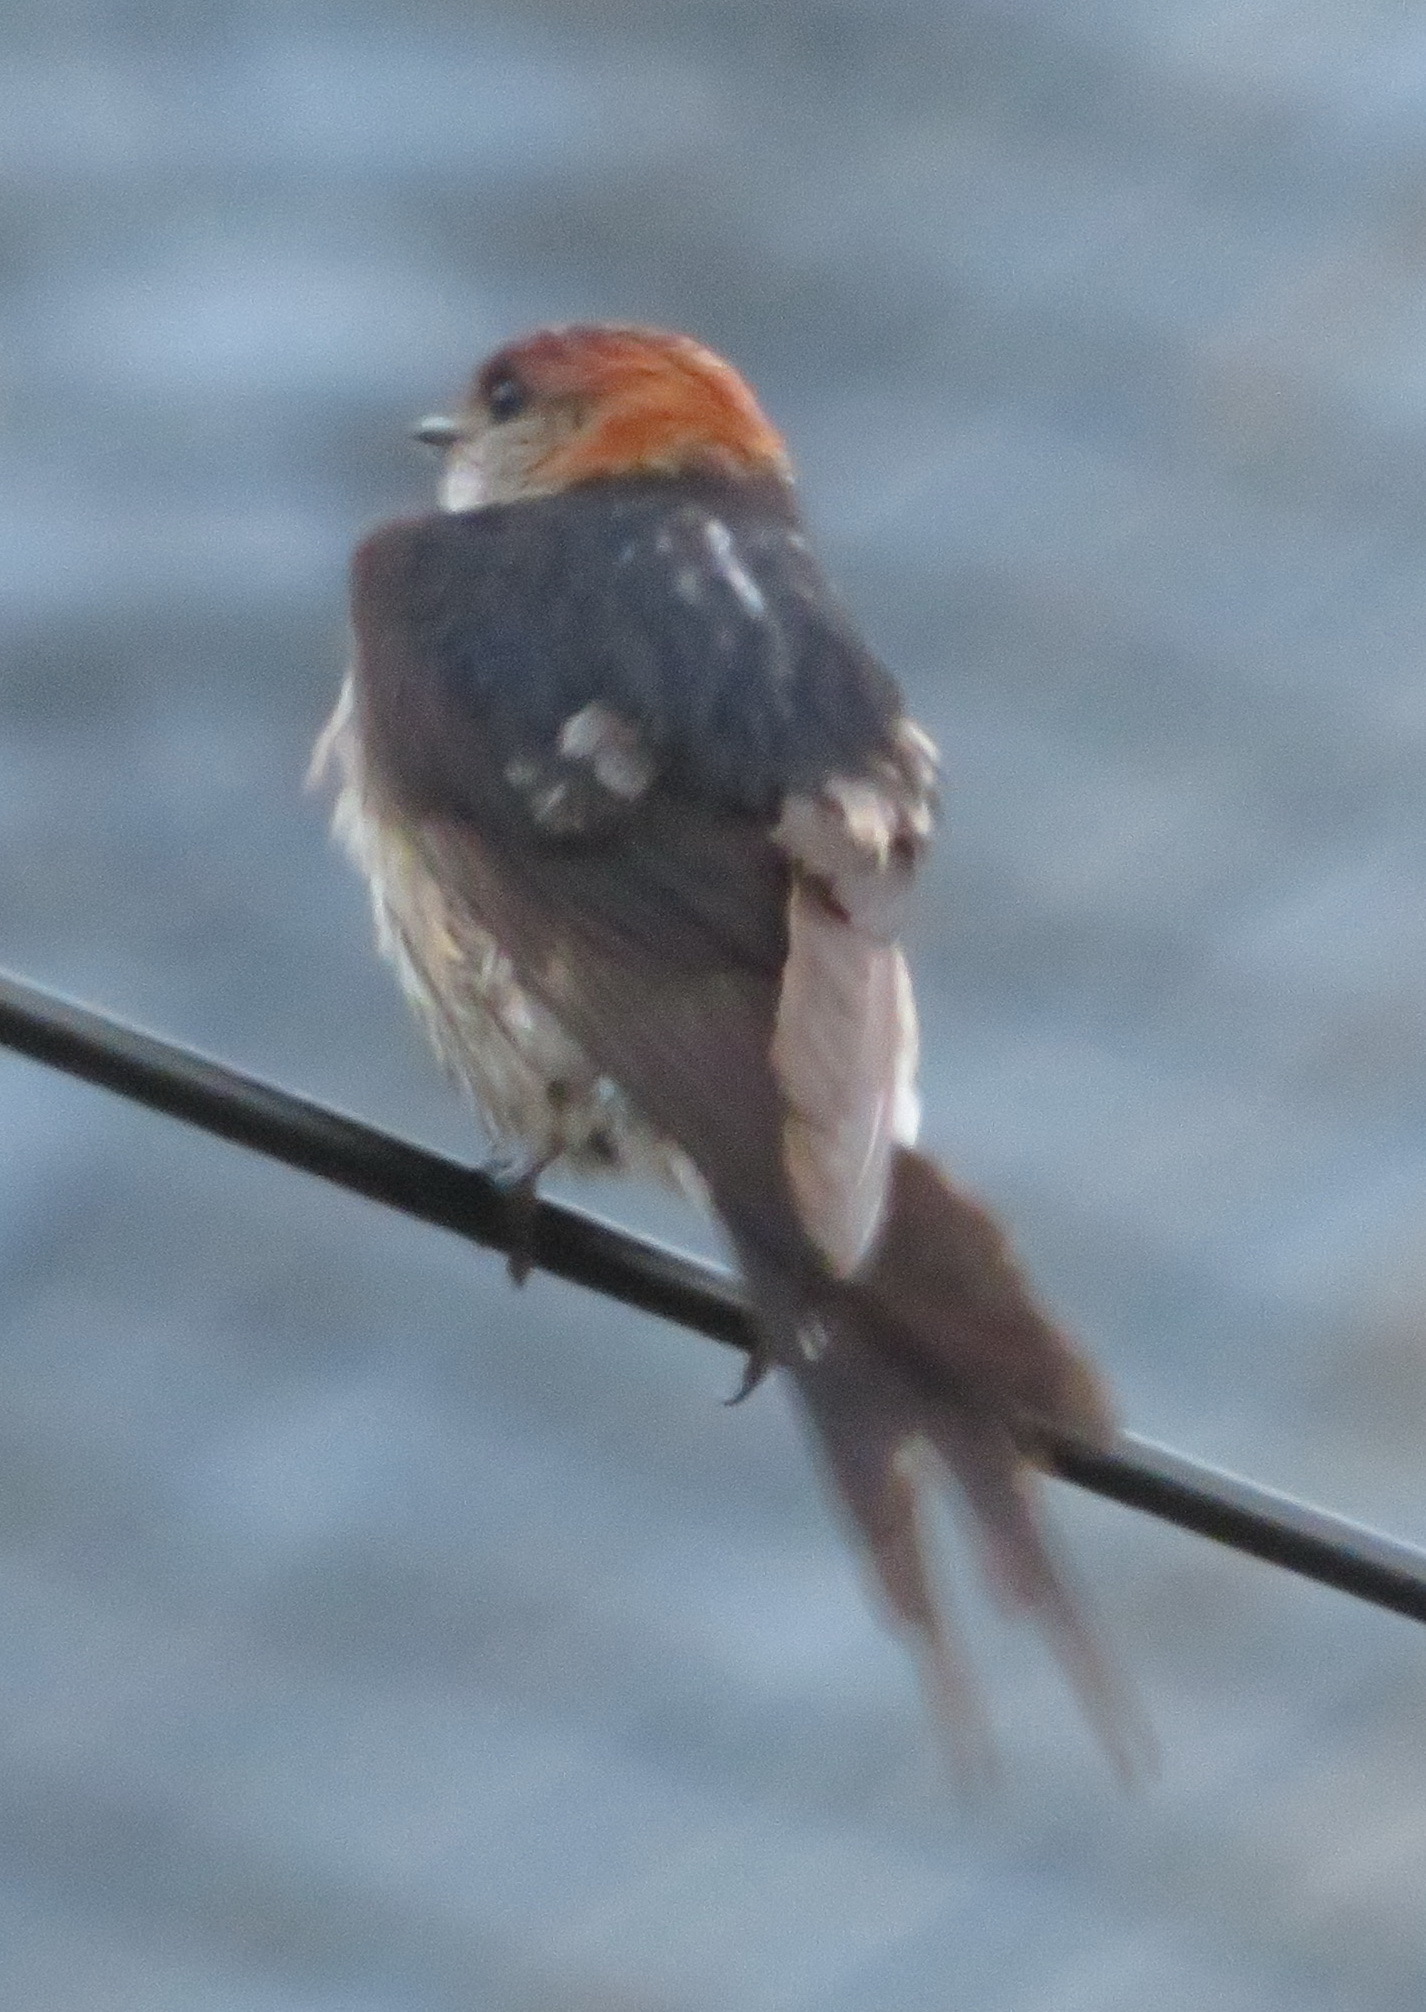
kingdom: Animalia
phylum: Chordata
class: Aves
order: Passeriformes
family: Hirundinidae
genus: Cecropis
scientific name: Cecropis cucullata
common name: Greater striped-swallow
